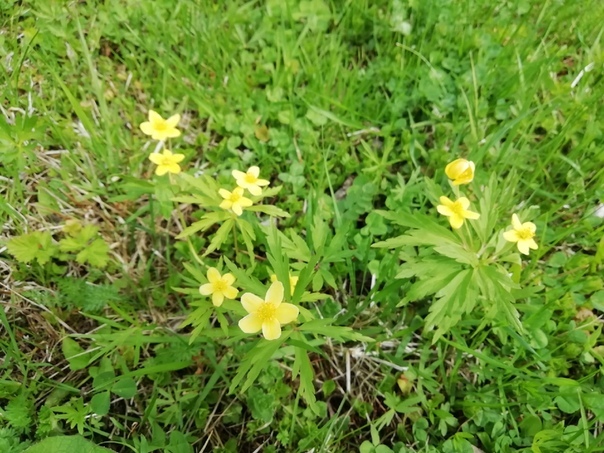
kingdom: Plantae
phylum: Tracheophyta
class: Magnoliopsida
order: Ranunculales
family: Ranunculaceae
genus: Anemone
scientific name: Anemone ranunculoides
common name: Yellow anemone
